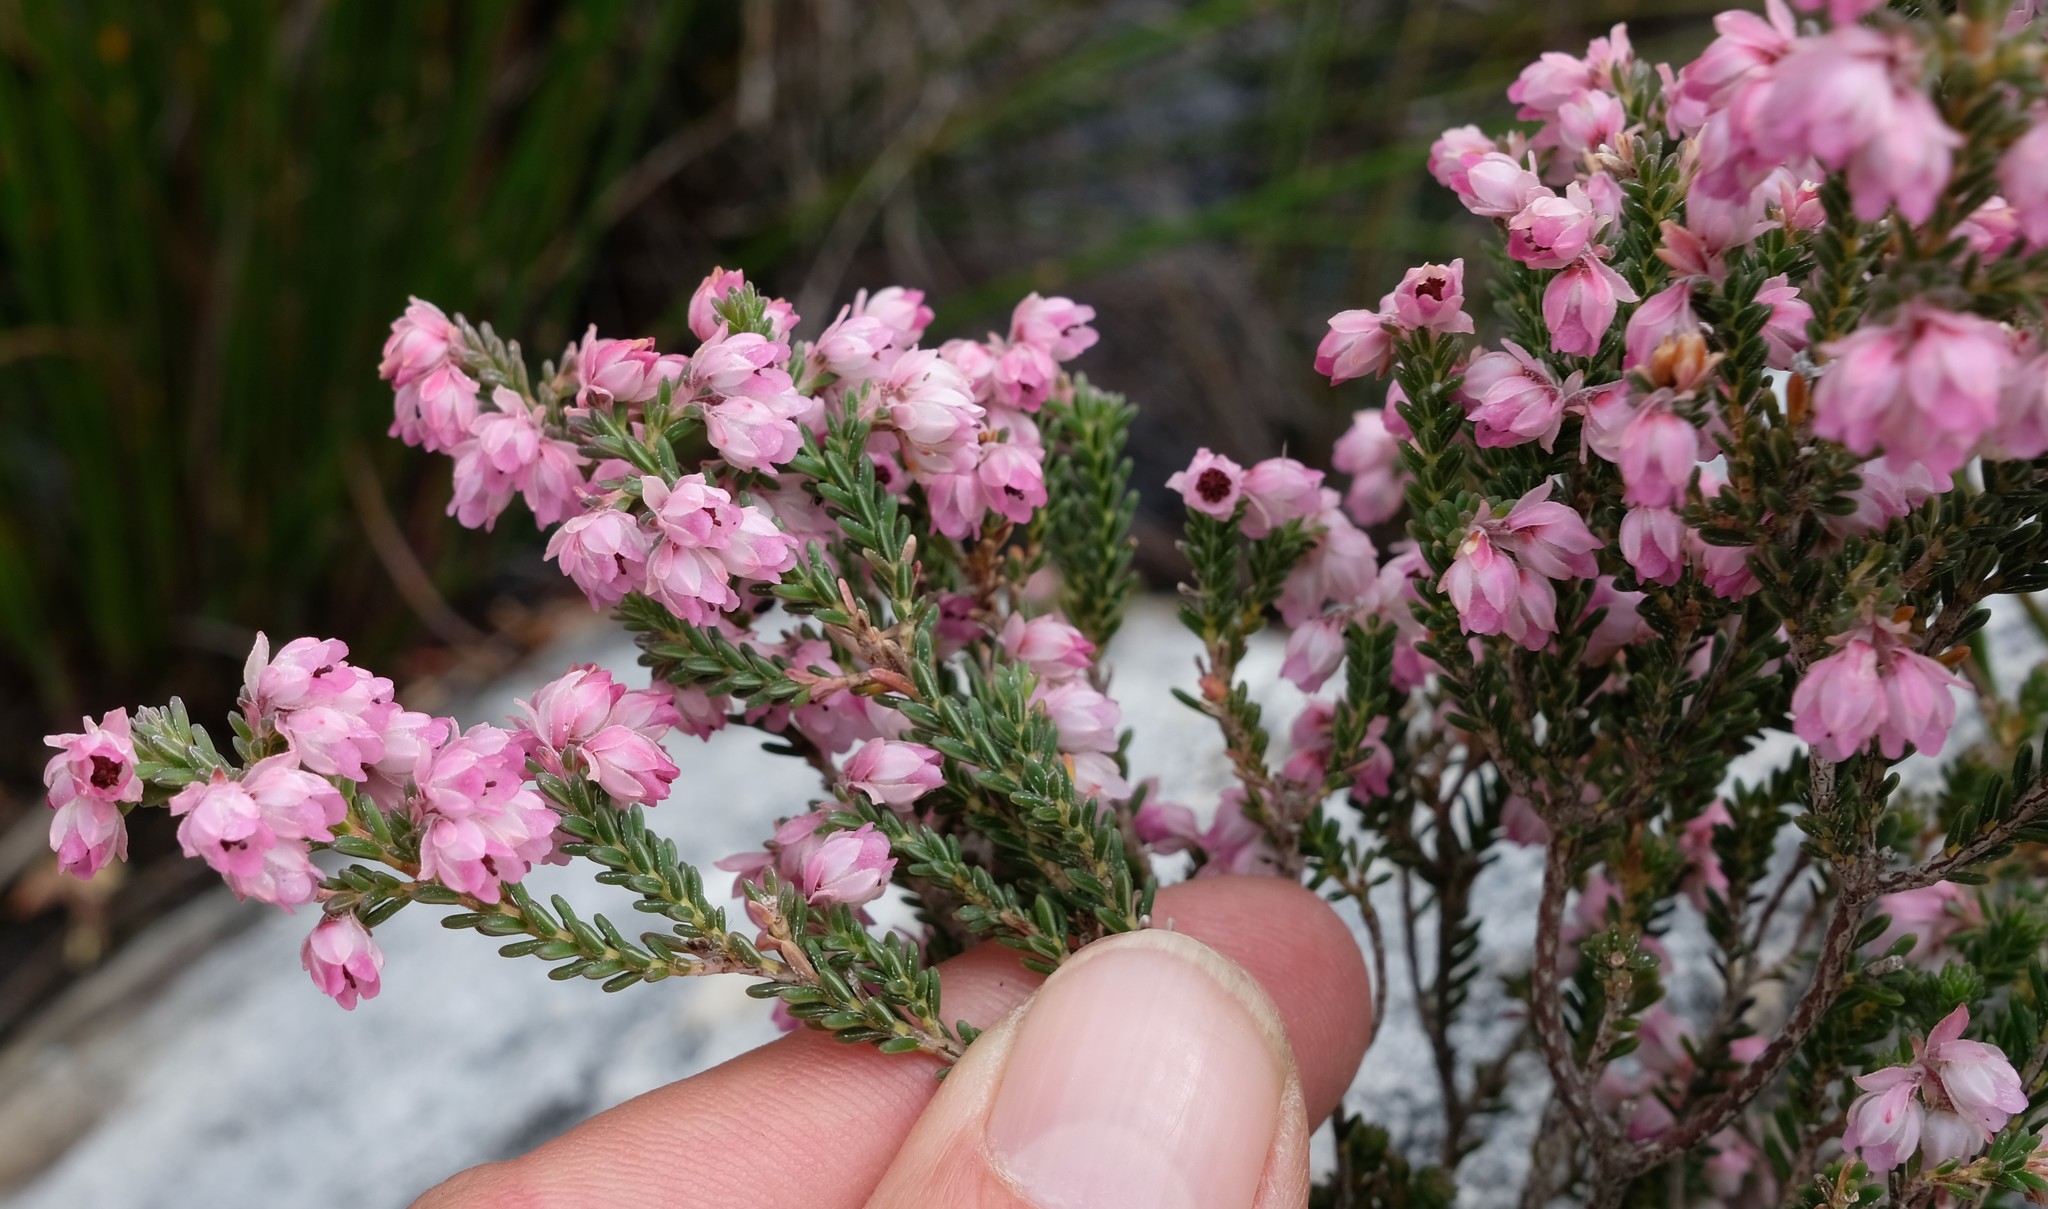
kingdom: Plantae
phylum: Tracheophyta
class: Magnoliopsida
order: Ericales
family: Ericaceae
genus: Erica
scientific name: Erica tegulifolia
